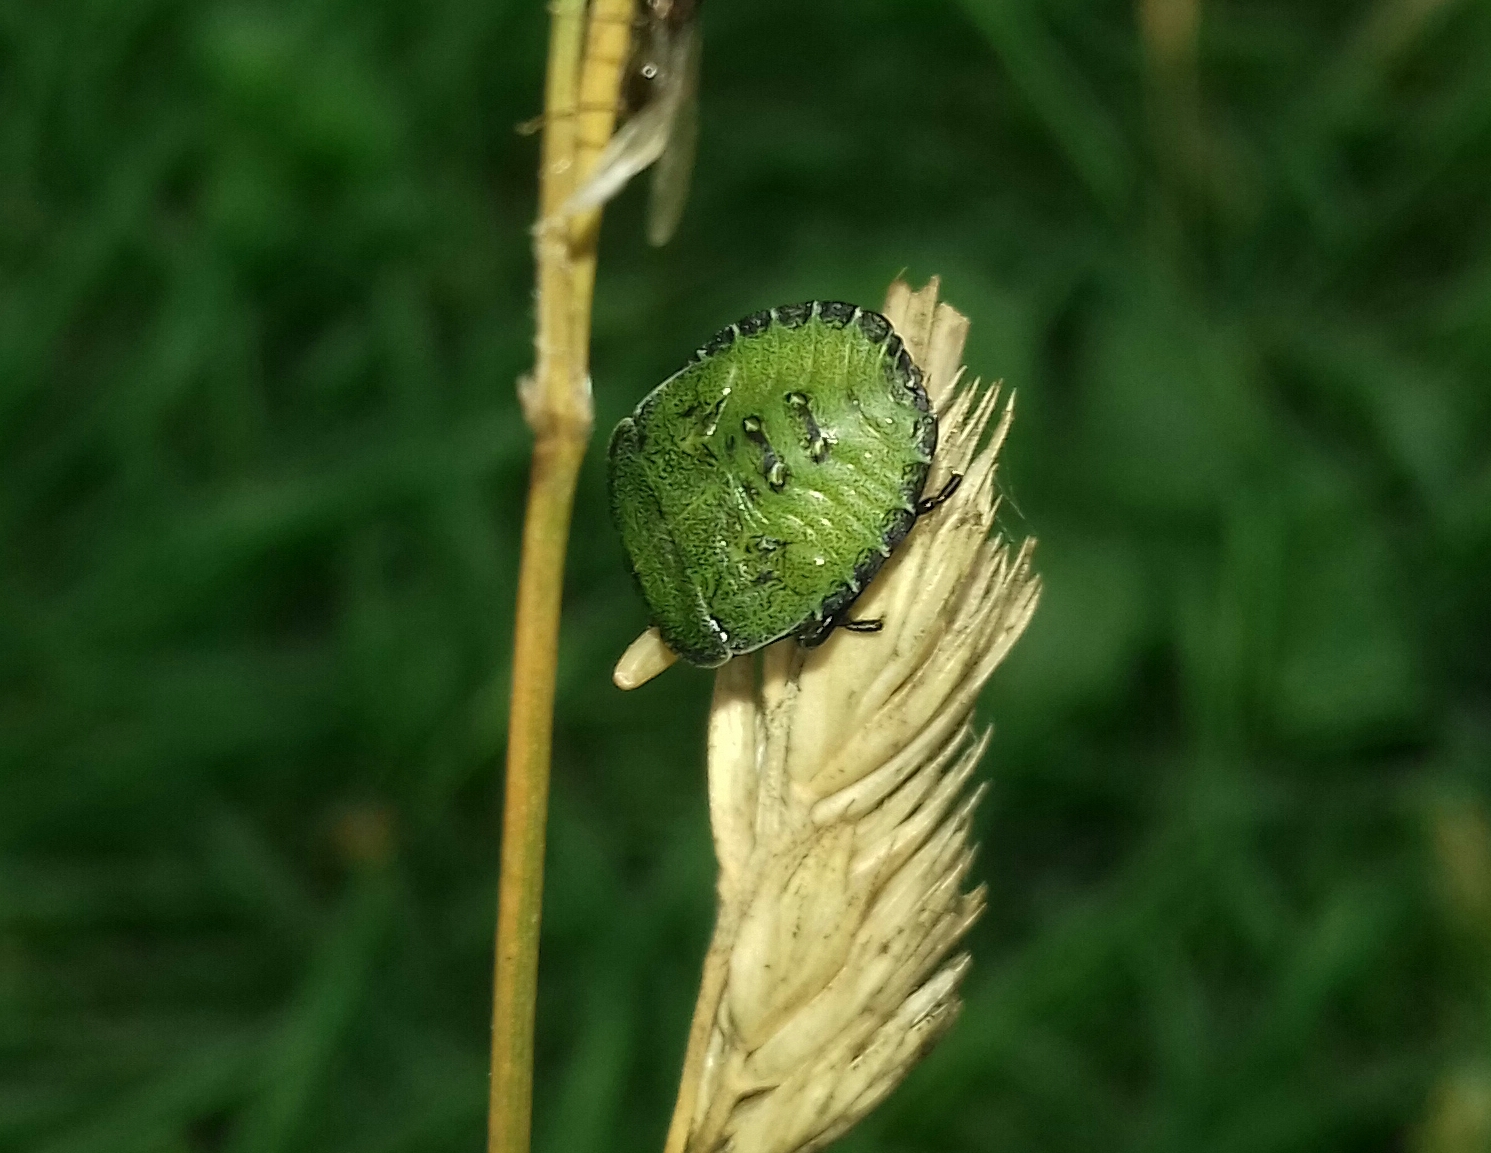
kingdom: Animalia
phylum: Arthropoda
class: Insecta
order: Hemiptera
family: Pentatomidae
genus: Palomena
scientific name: Palomena prasina
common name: Green shieldbug
